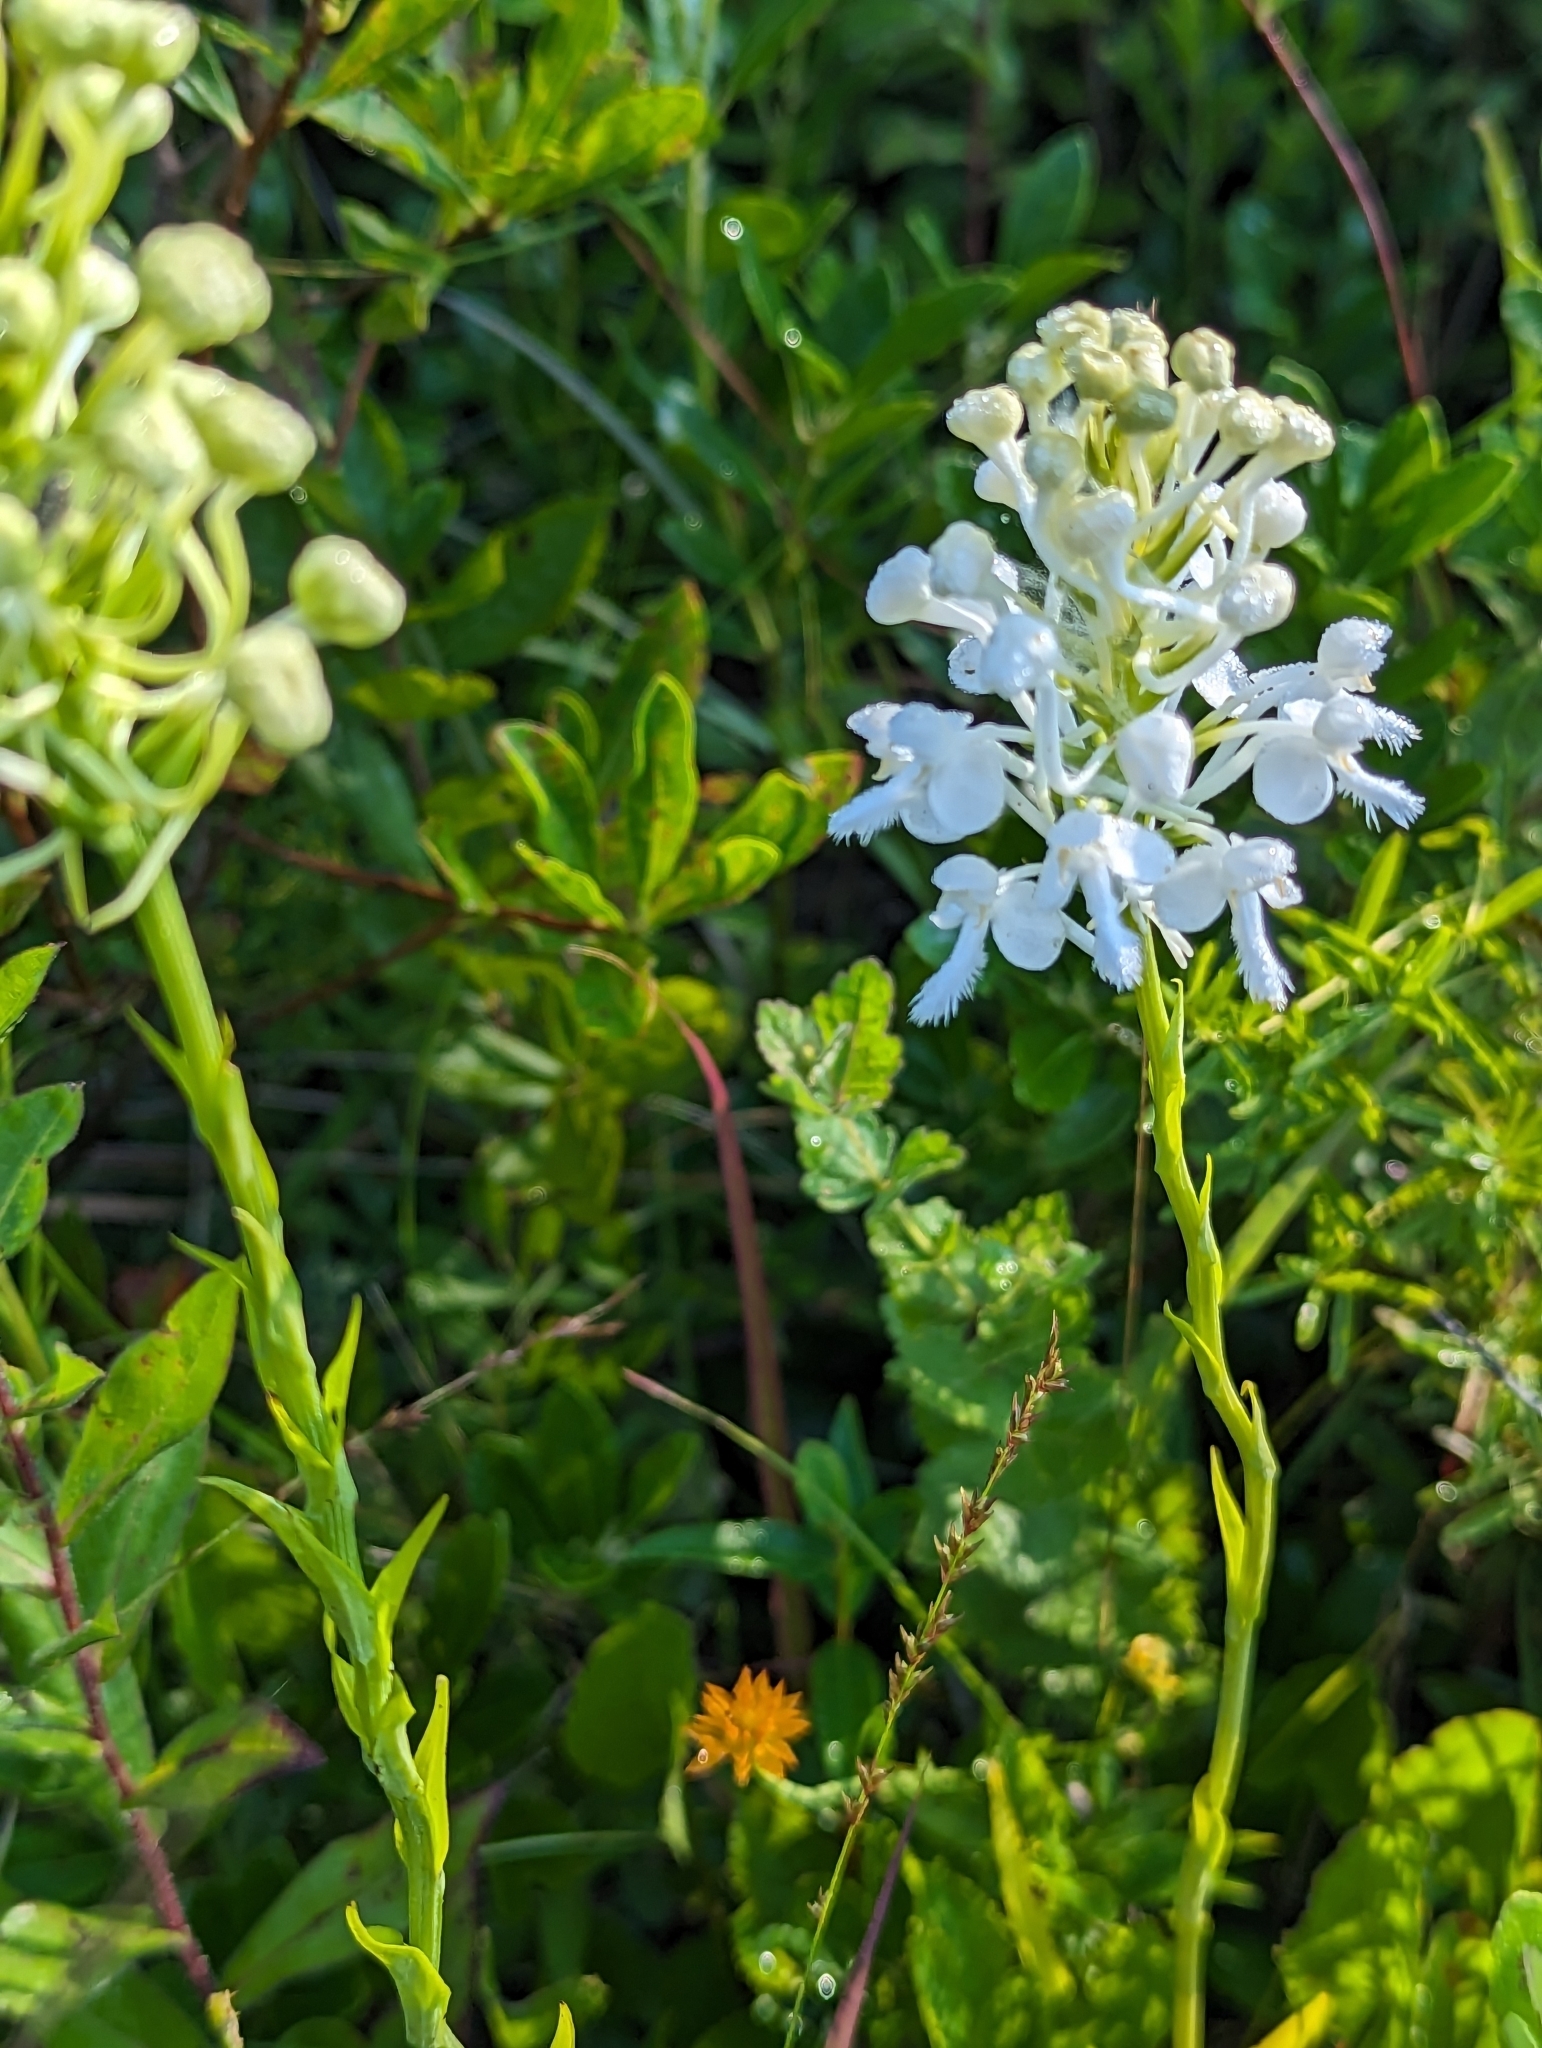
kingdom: Plantae
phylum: Tracheophyta
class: Liliopsida
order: Asparagales
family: Orchidaceae
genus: Platanthera
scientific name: Platanthera blephariglottis
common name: White fringed orchid
